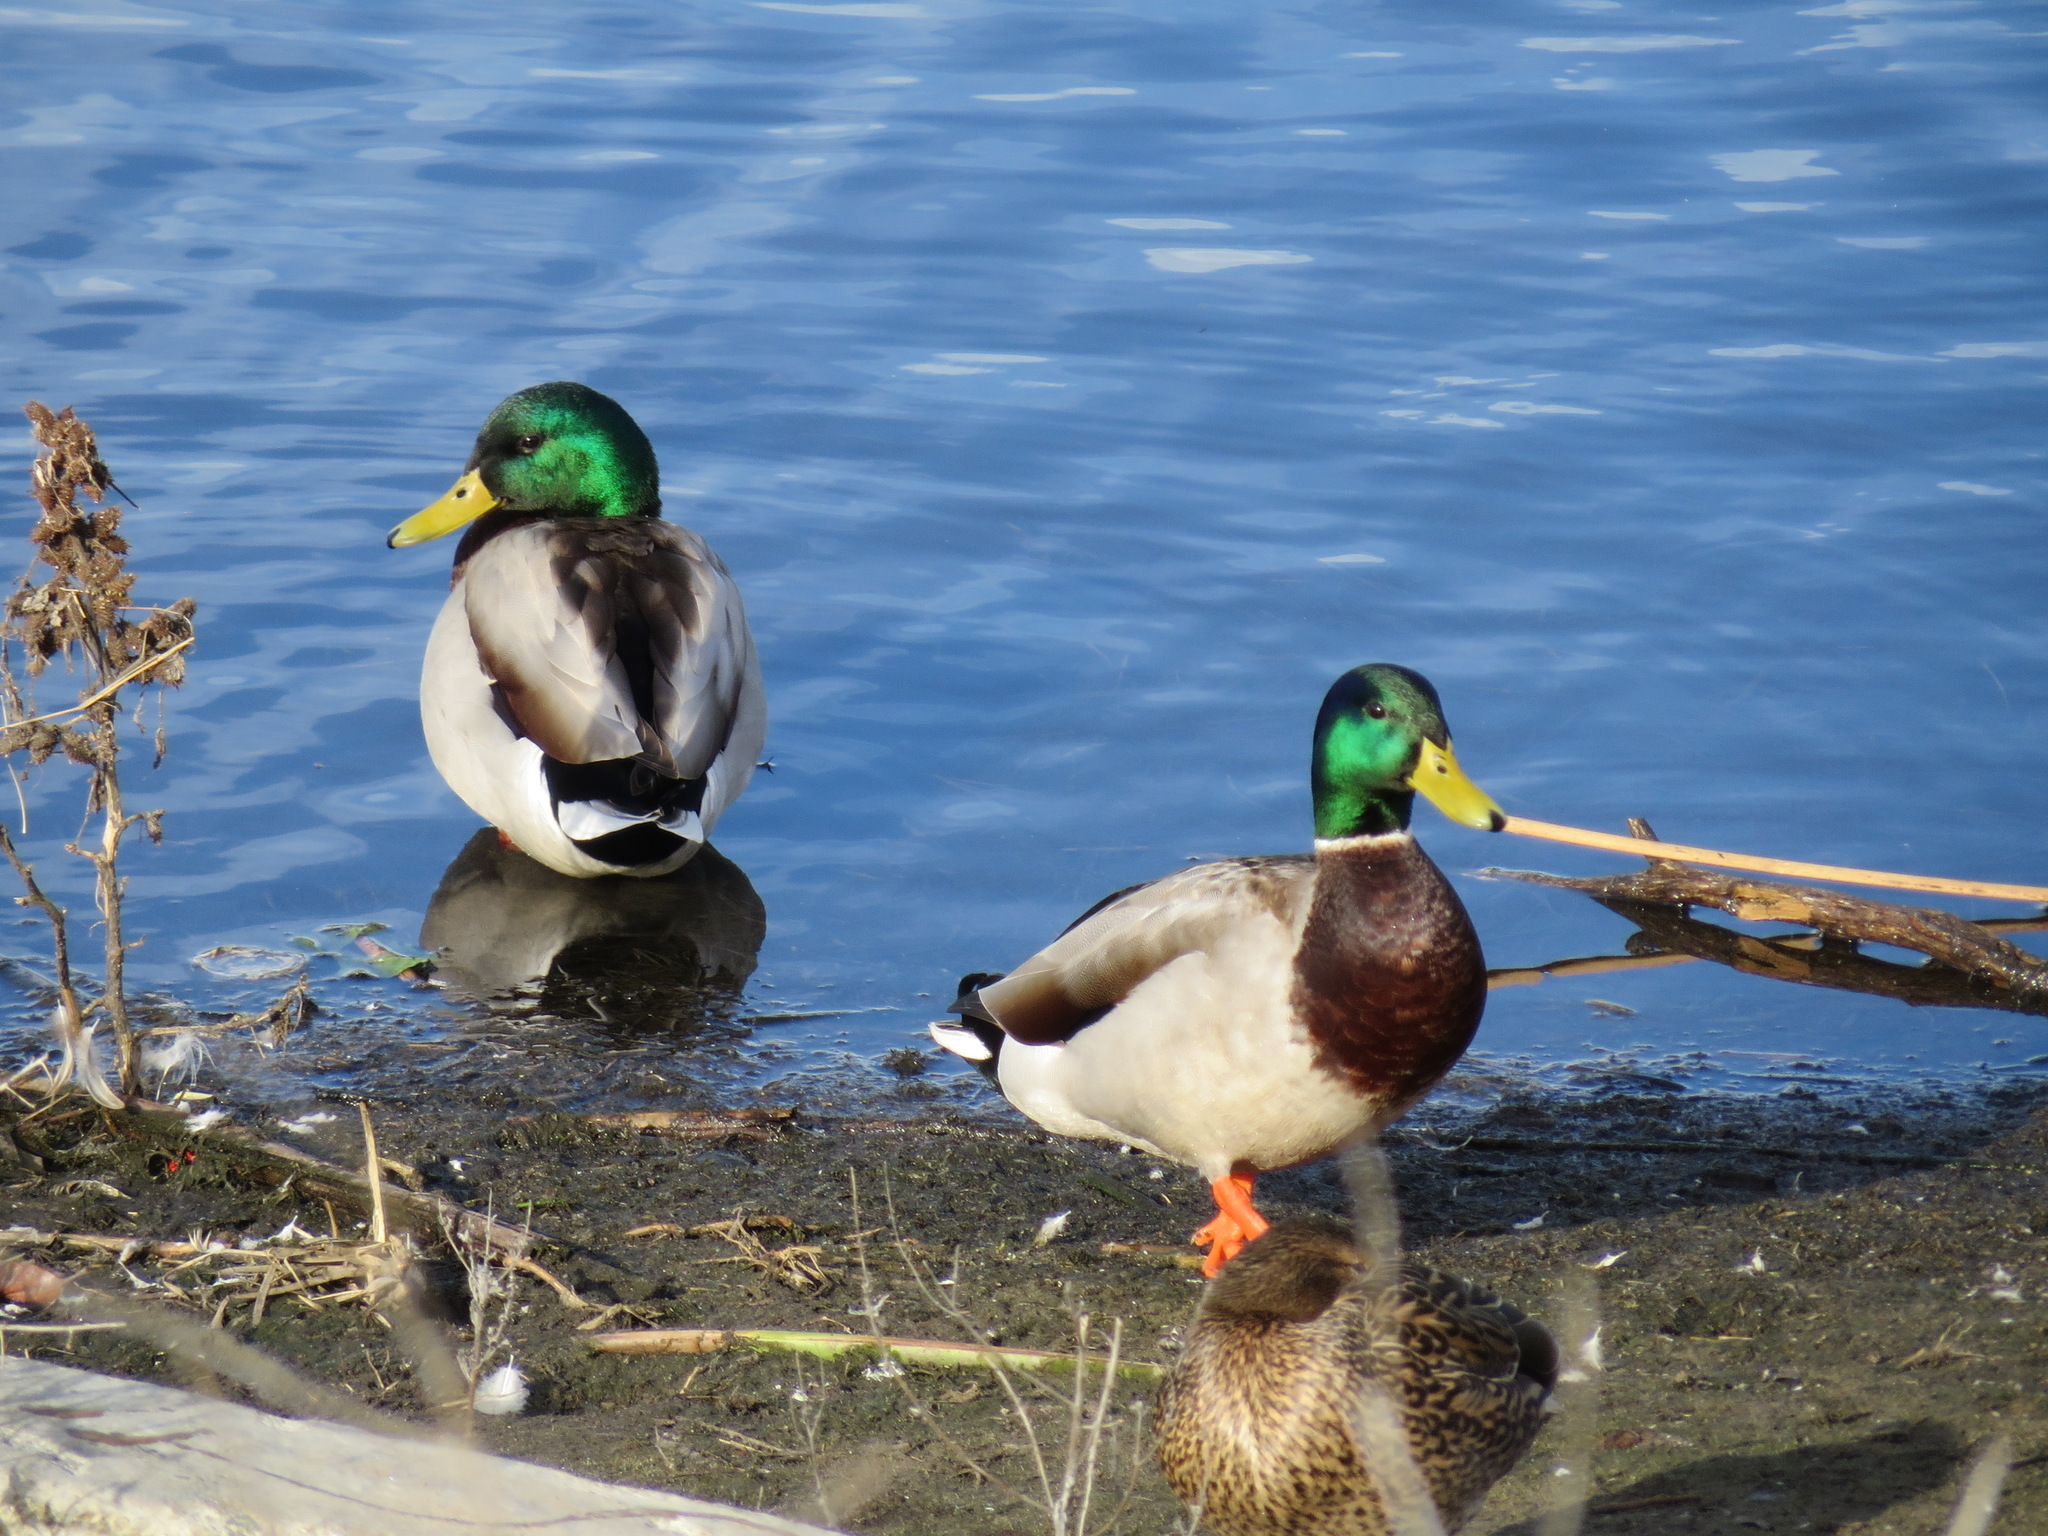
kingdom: Animalia
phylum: Chordata
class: Aves
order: Anseriformes
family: Anatidae
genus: Anas
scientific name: Anas platyrhynchos
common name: Mallard
